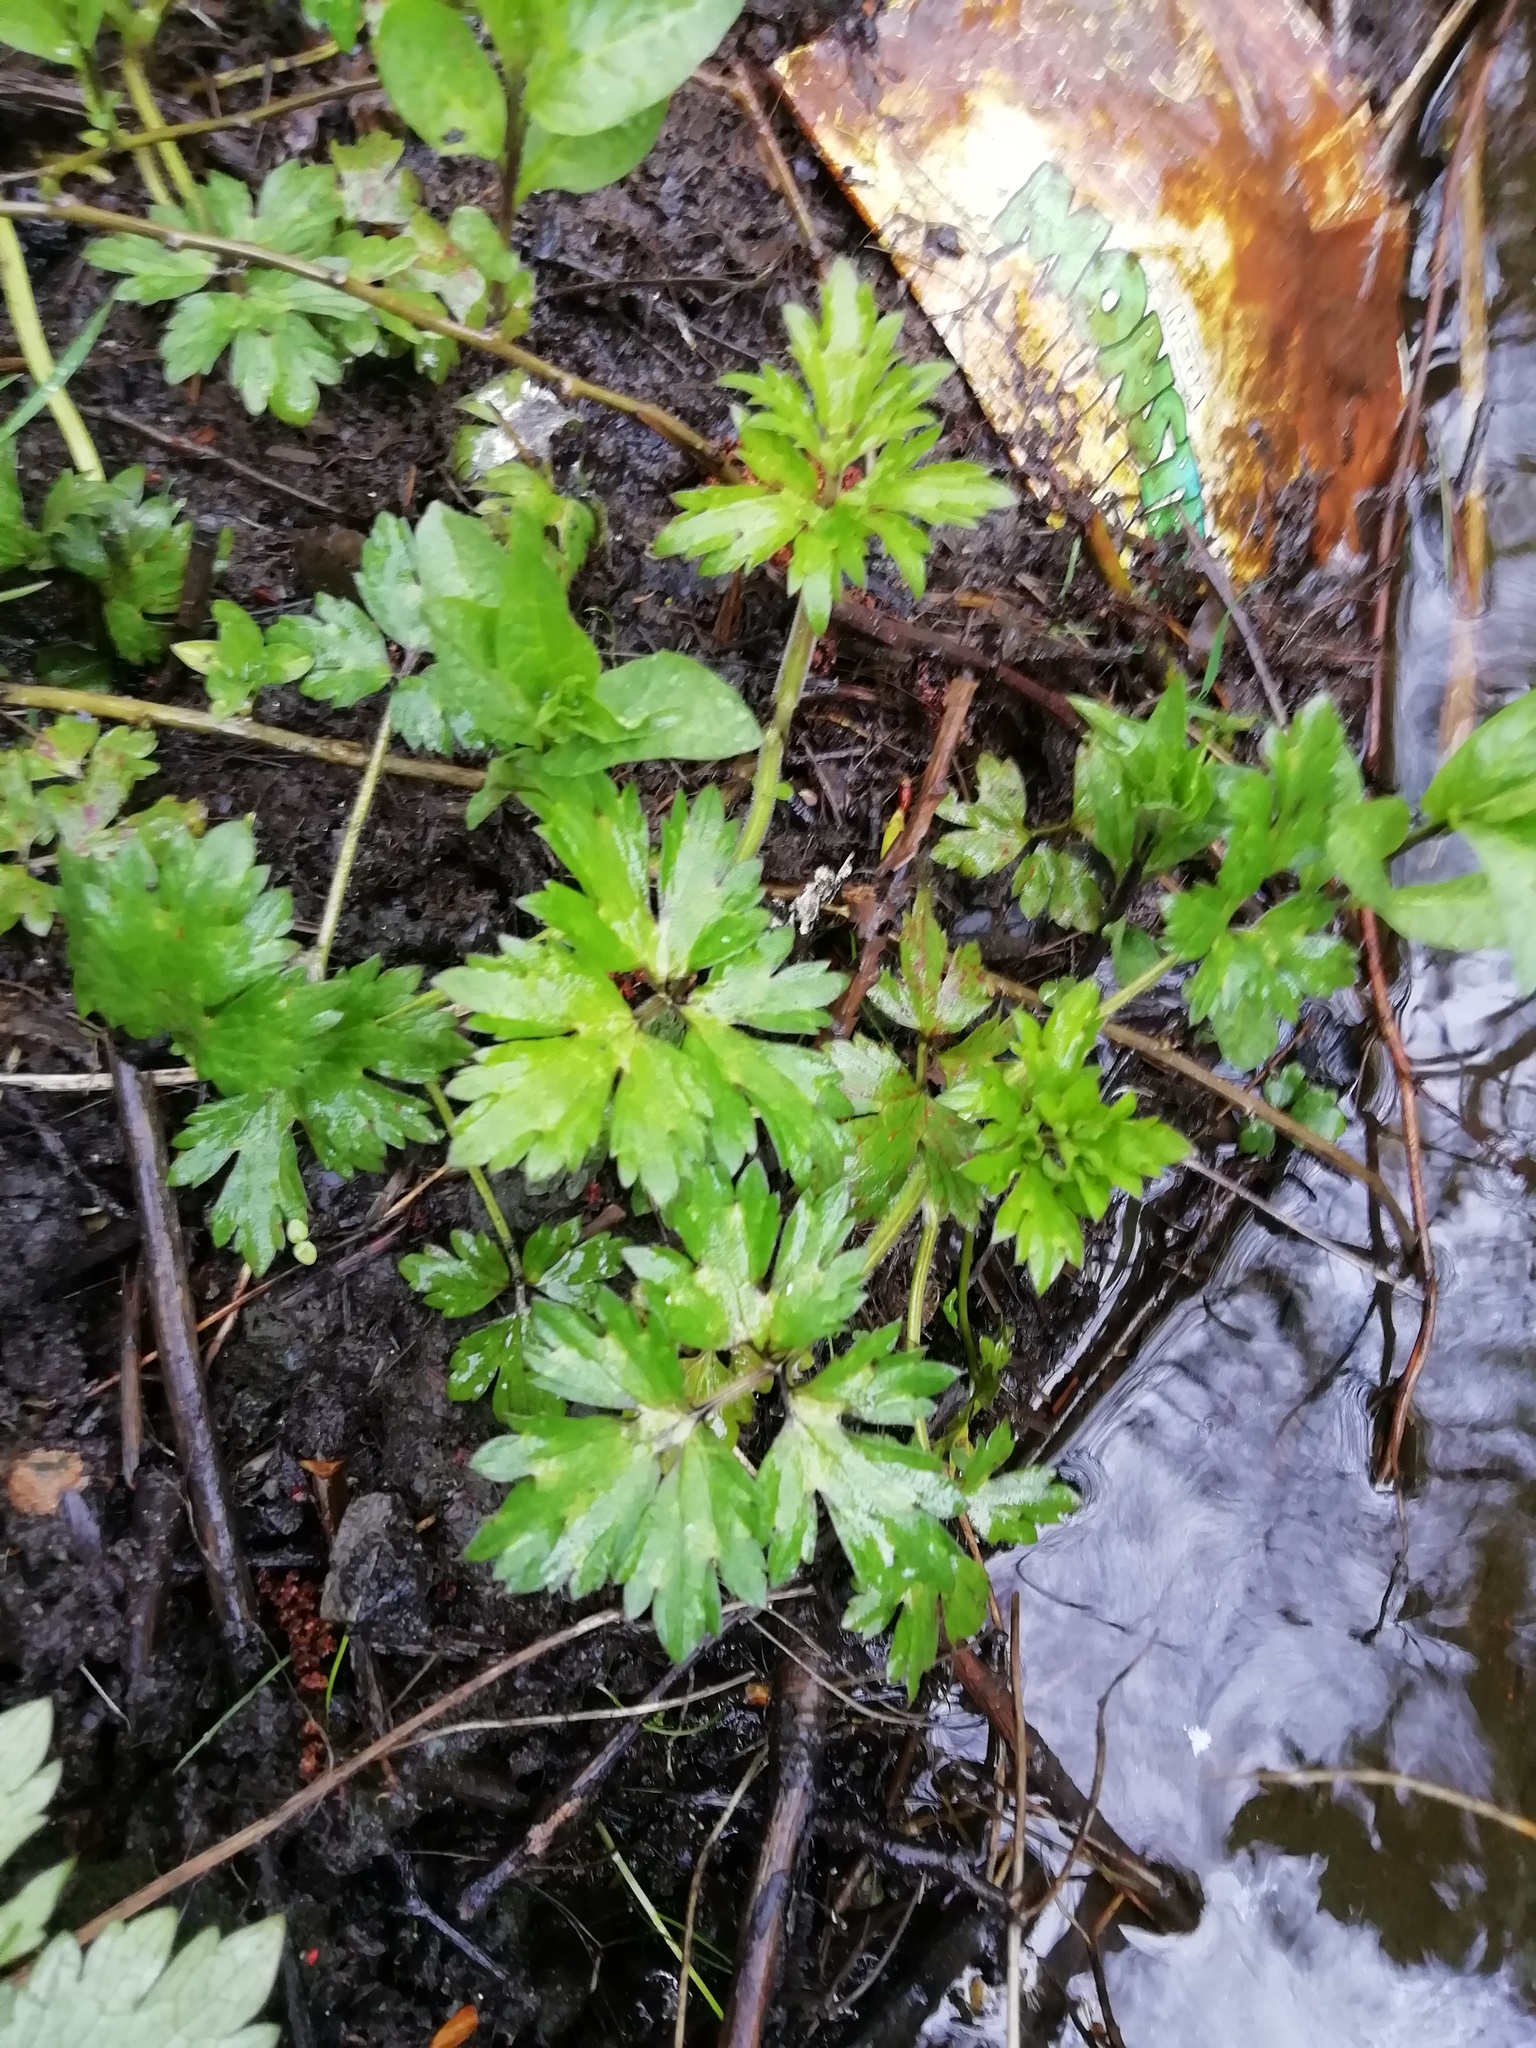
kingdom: Plantae
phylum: Tracheophyta
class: Magnoliopsida
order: Ranunculales
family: Ranunculaceae
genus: Ranunculus
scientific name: Ranunculus repens
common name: Creeping buttercup
